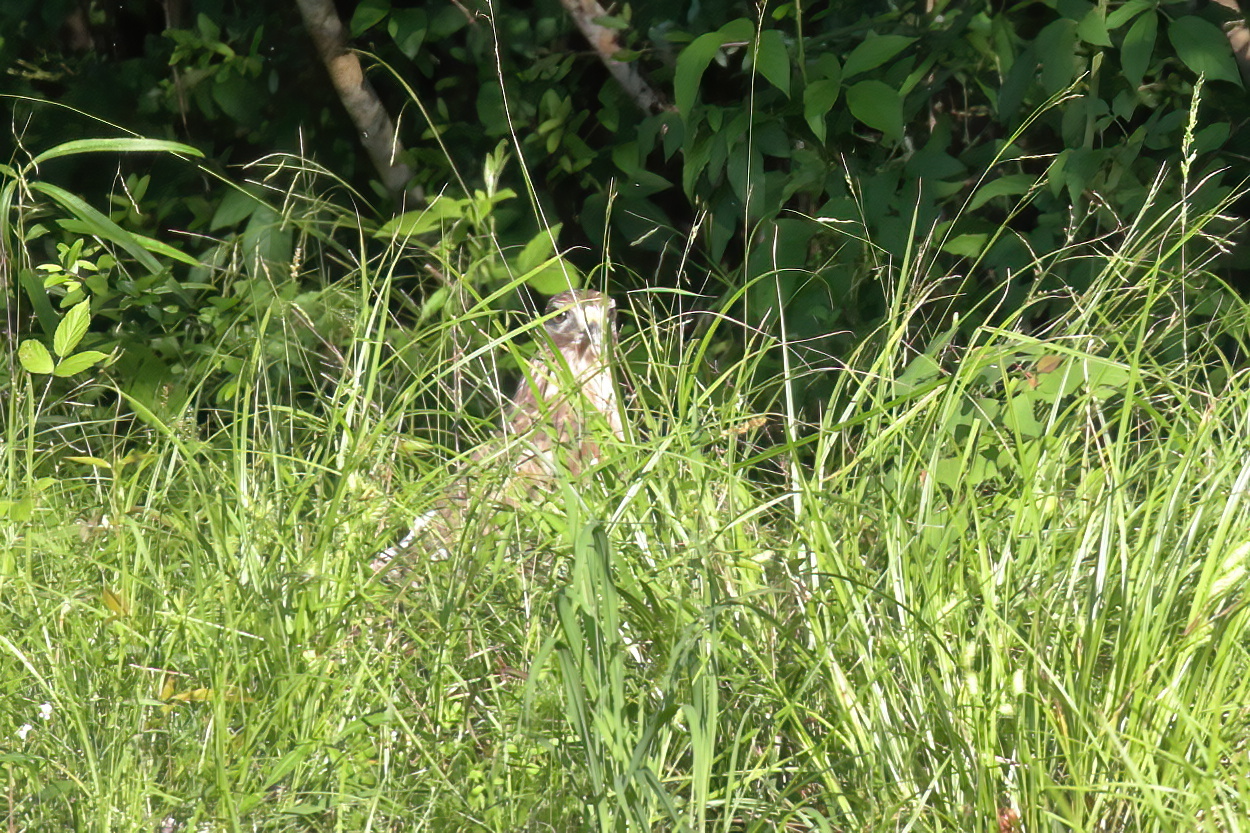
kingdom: Animalia
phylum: Chordata
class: Aves
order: Accipitriformes
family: Accipitridae
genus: Buteo
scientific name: Buteo lineatus
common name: Red-shouldered hawk
